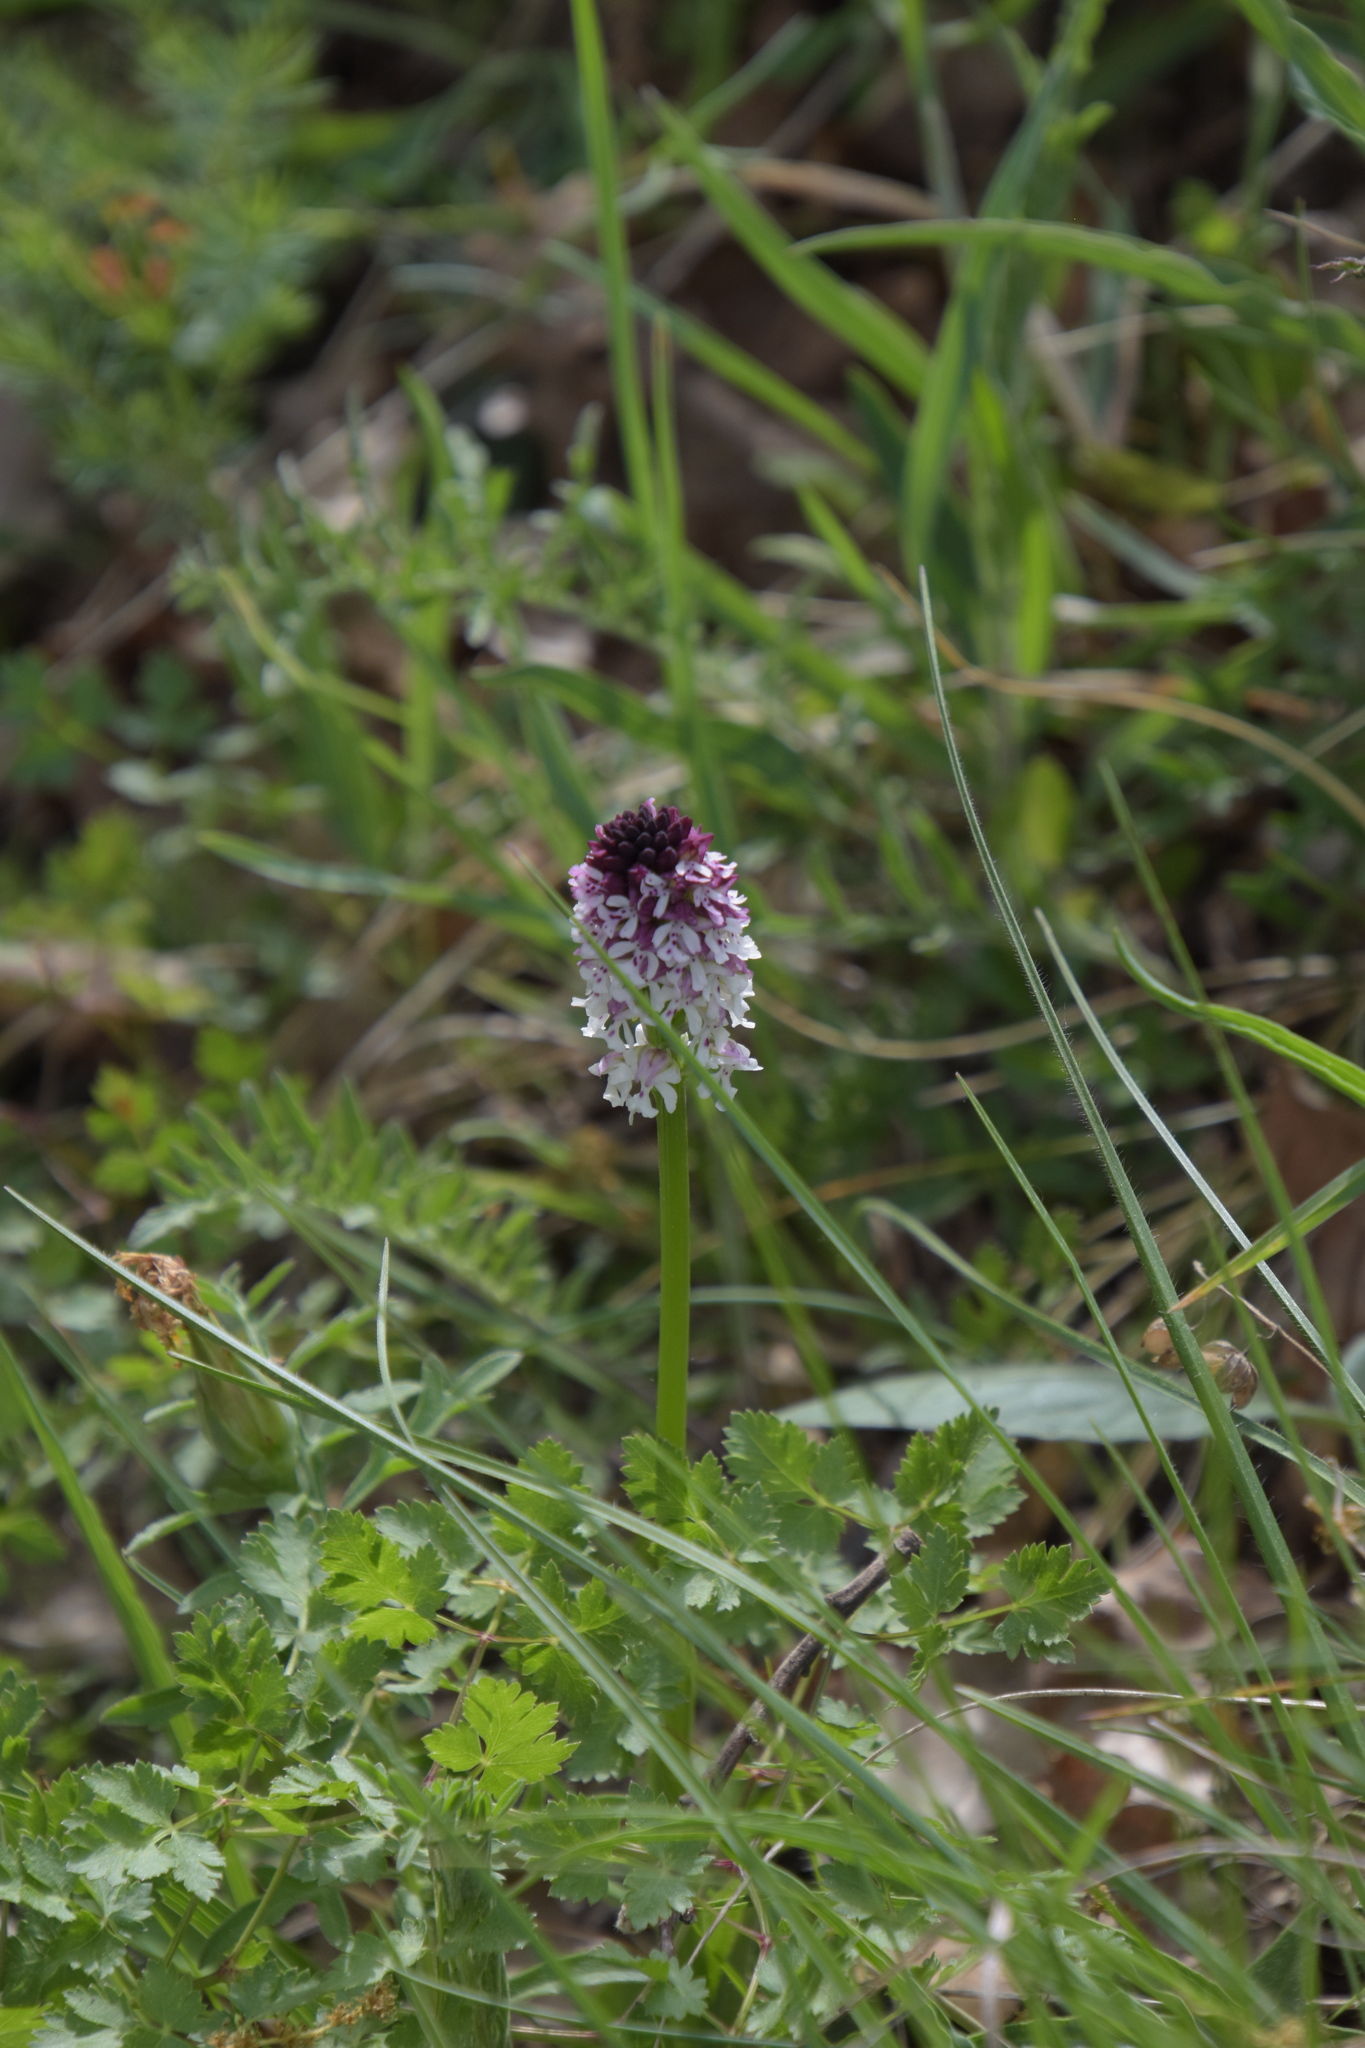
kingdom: Plantae
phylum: Tracheophyta
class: Liliopsida
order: Asparagales
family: Orchidaceae
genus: Neotinea
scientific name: Neotinea ustulata
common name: Burnt orchid
